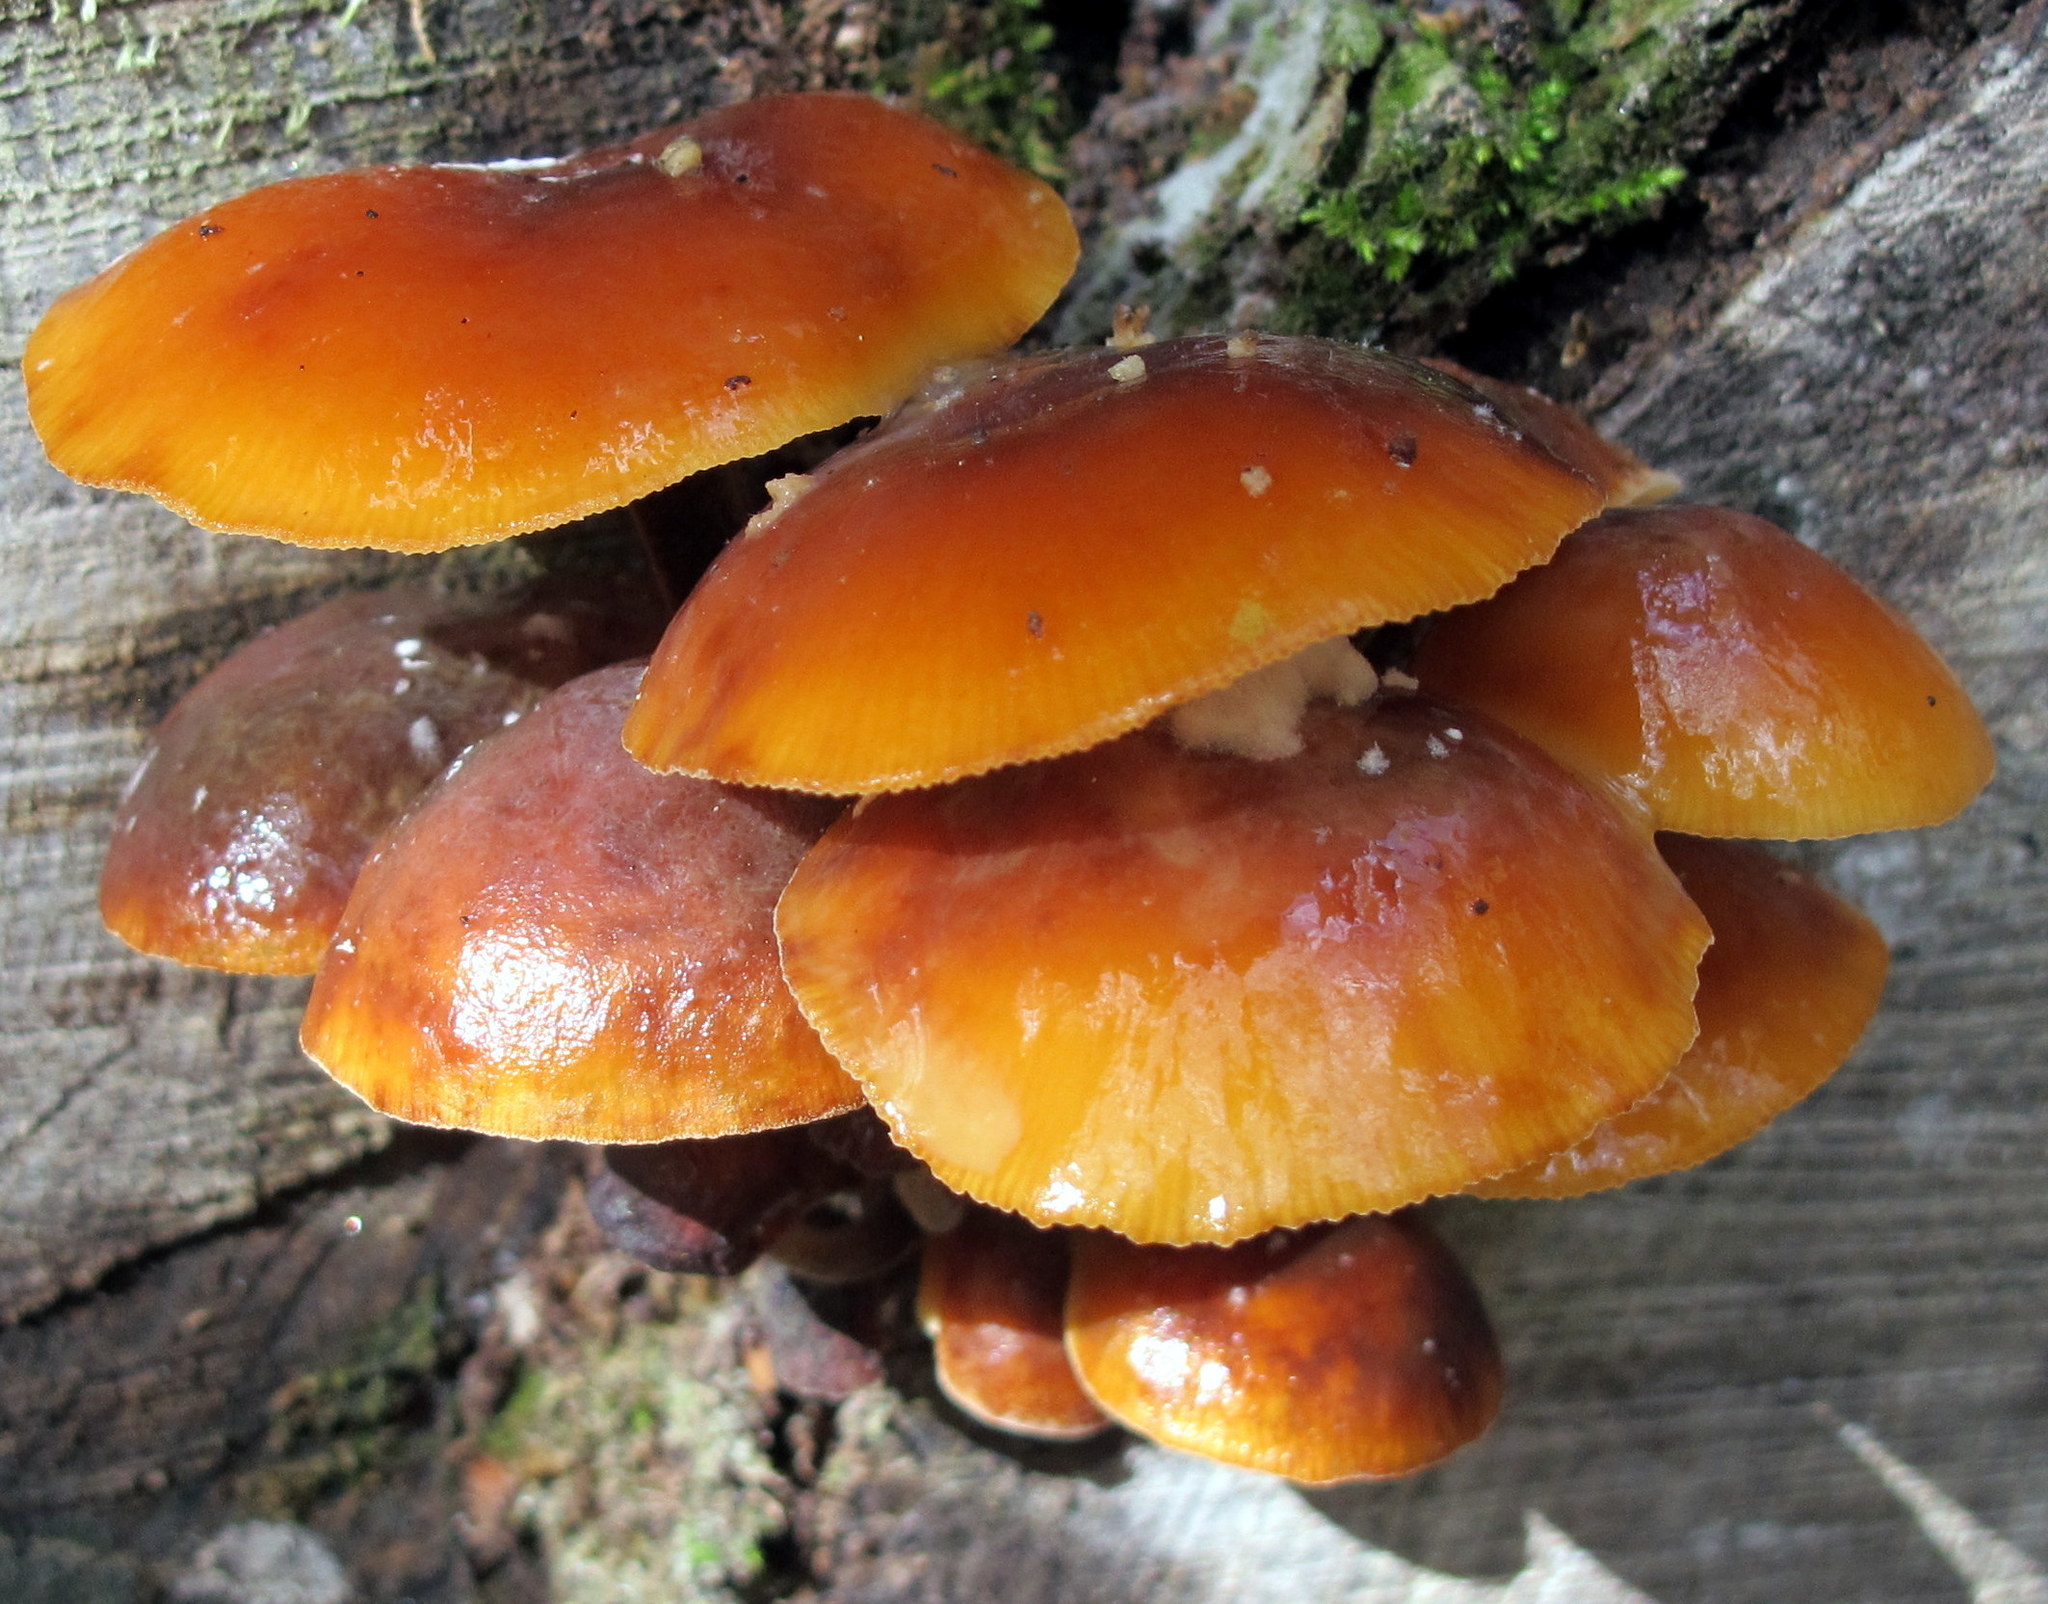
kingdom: Fungi
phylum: Basidiomycota
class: Agaricomycetes
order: Agaricales
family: Physalacriaceae
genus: Flammulina
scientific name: Flammulina velutipes
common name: Velvet shank
